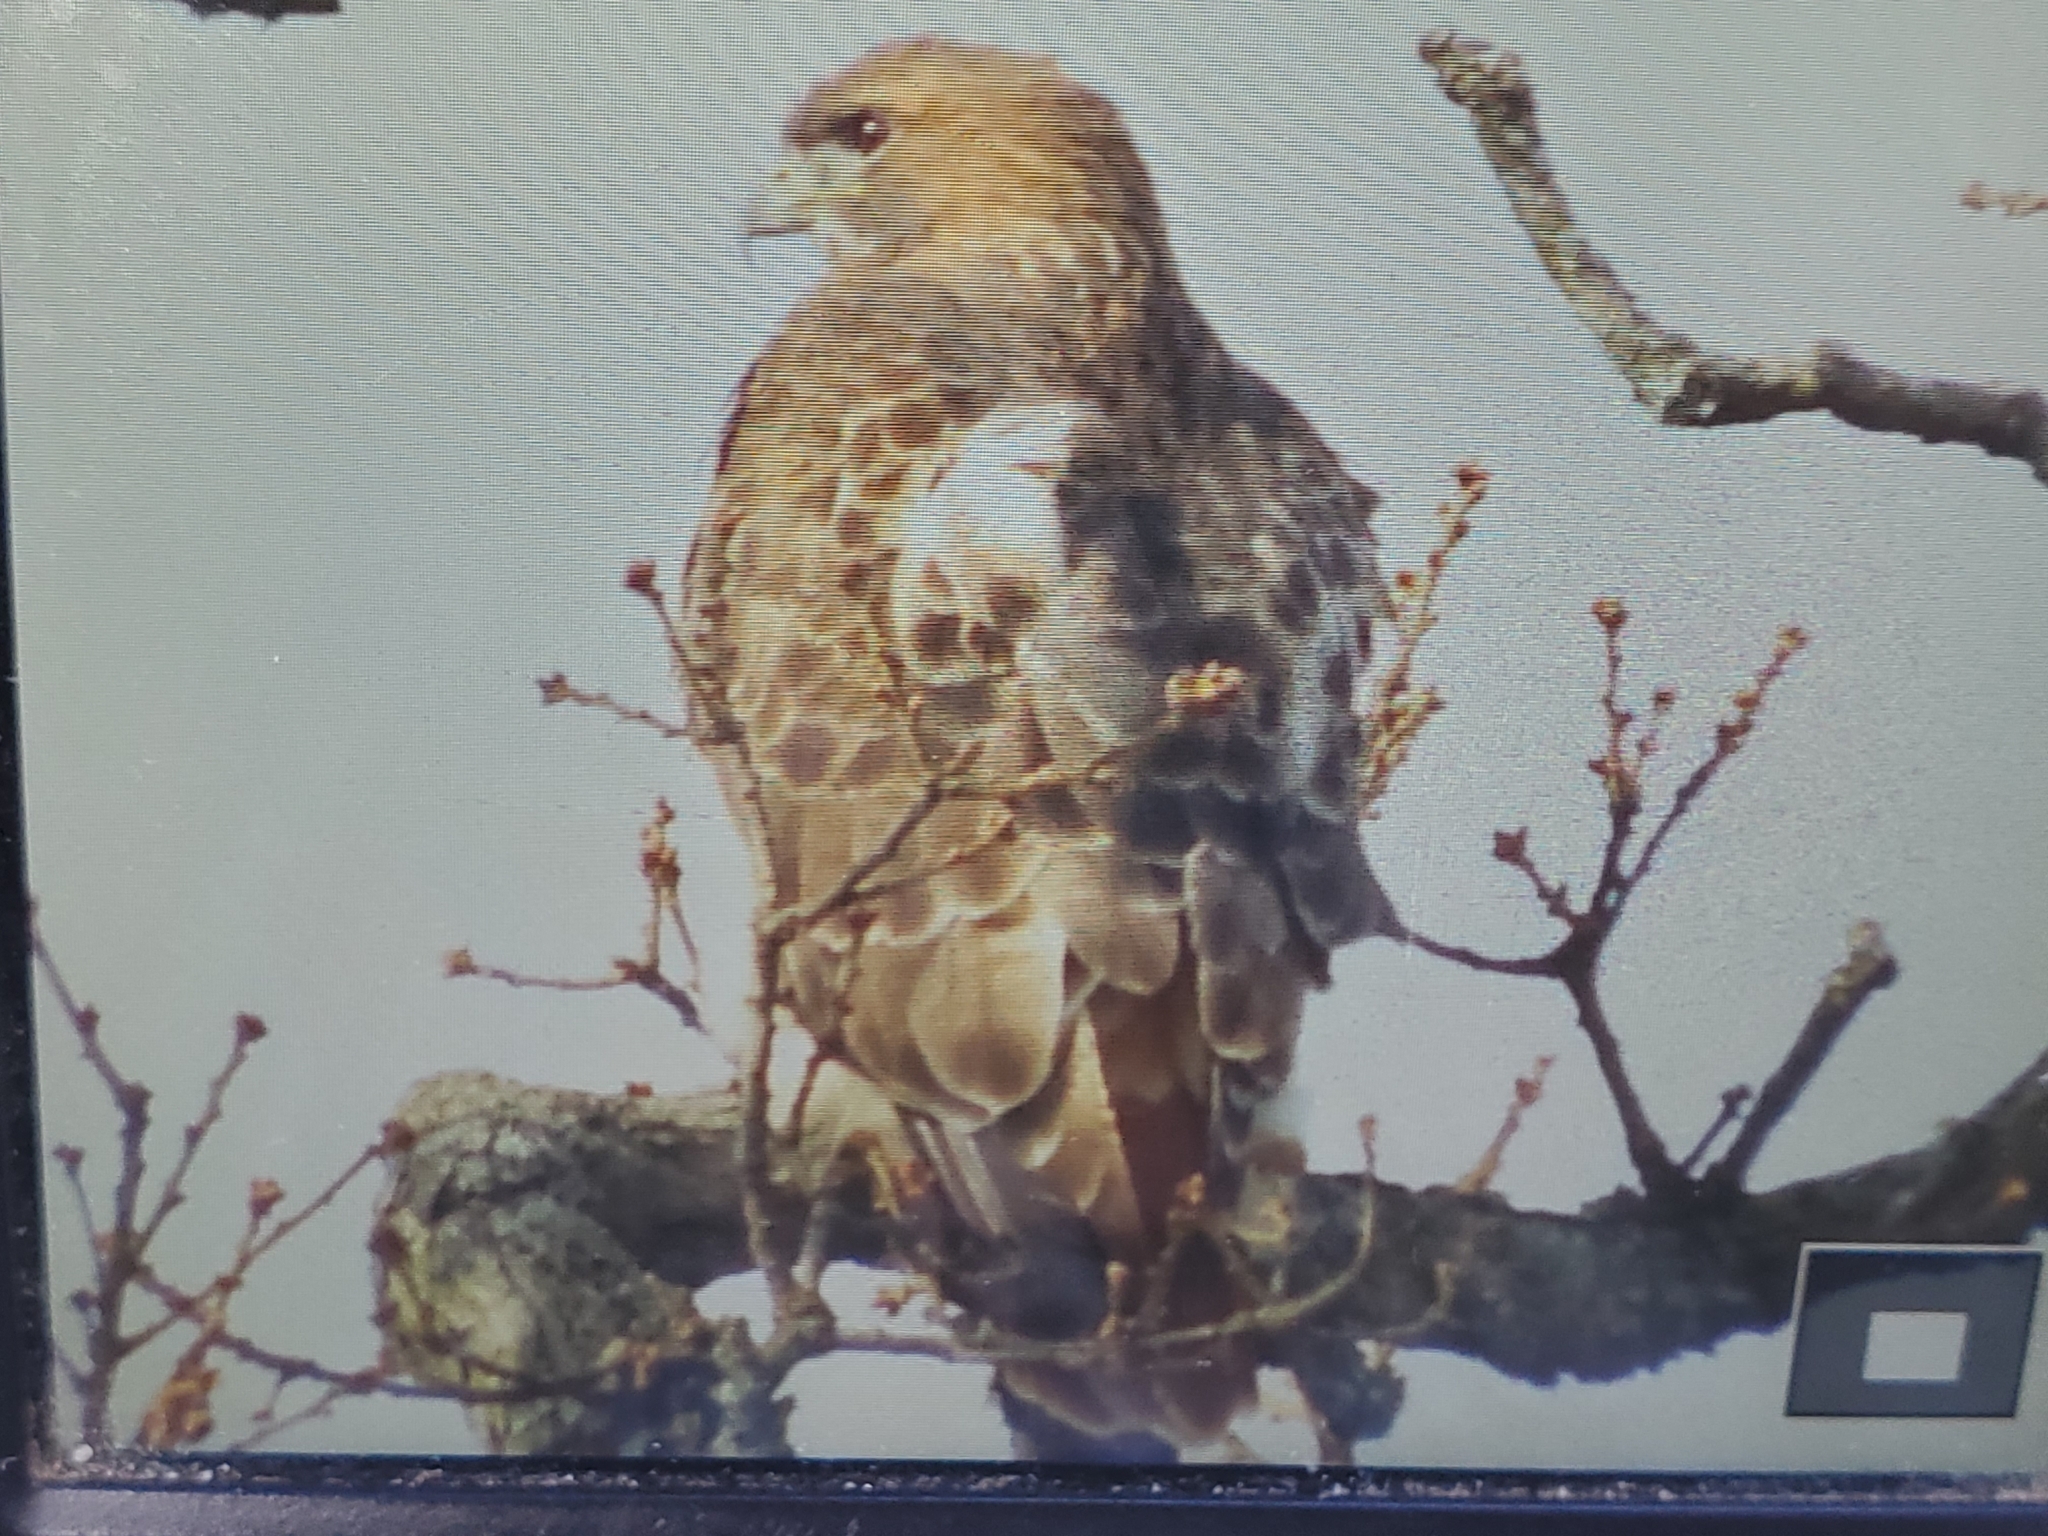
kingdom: Animalia
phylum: Chordata
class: Aves
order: Accipitriformes
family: Accipitridae
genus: Buteo
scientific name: Buteo jamaicensis
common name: Red-tailed hawk
